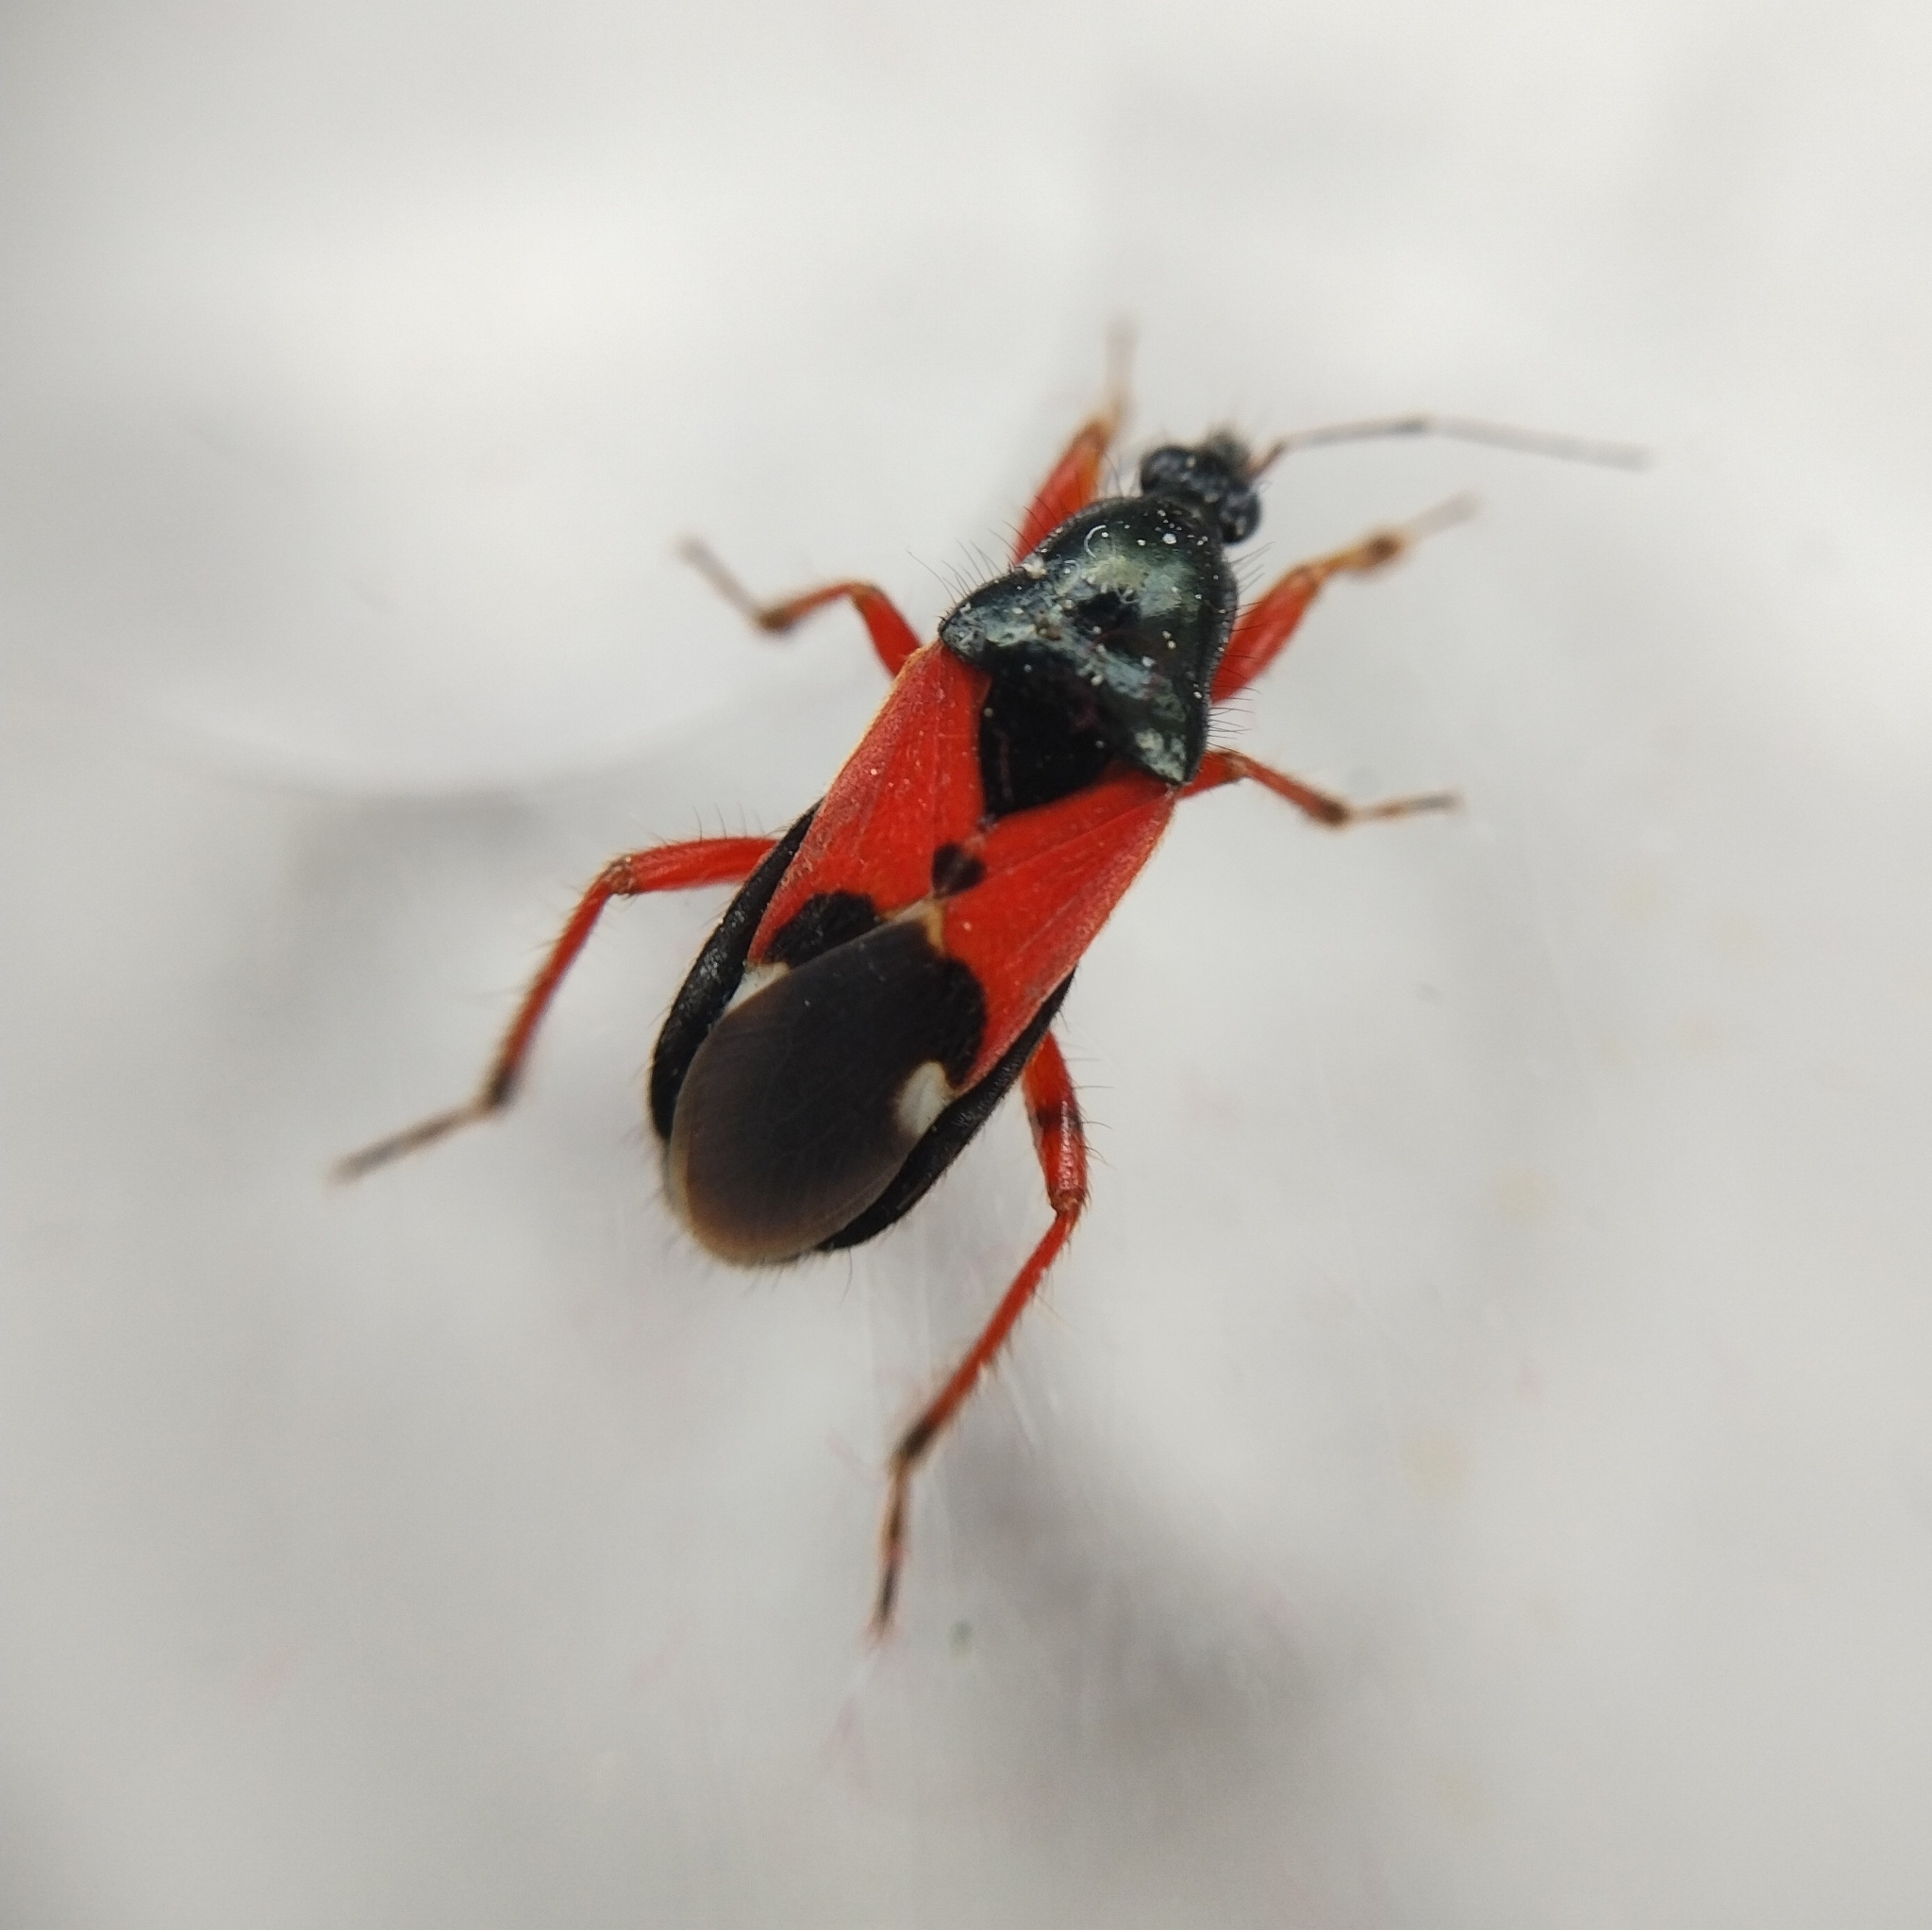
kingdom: Animalia
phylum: Arthropoda
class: Insecta
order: Hemiptera
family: Nabidae
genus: Prostemma
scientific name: Prostemma guttula
